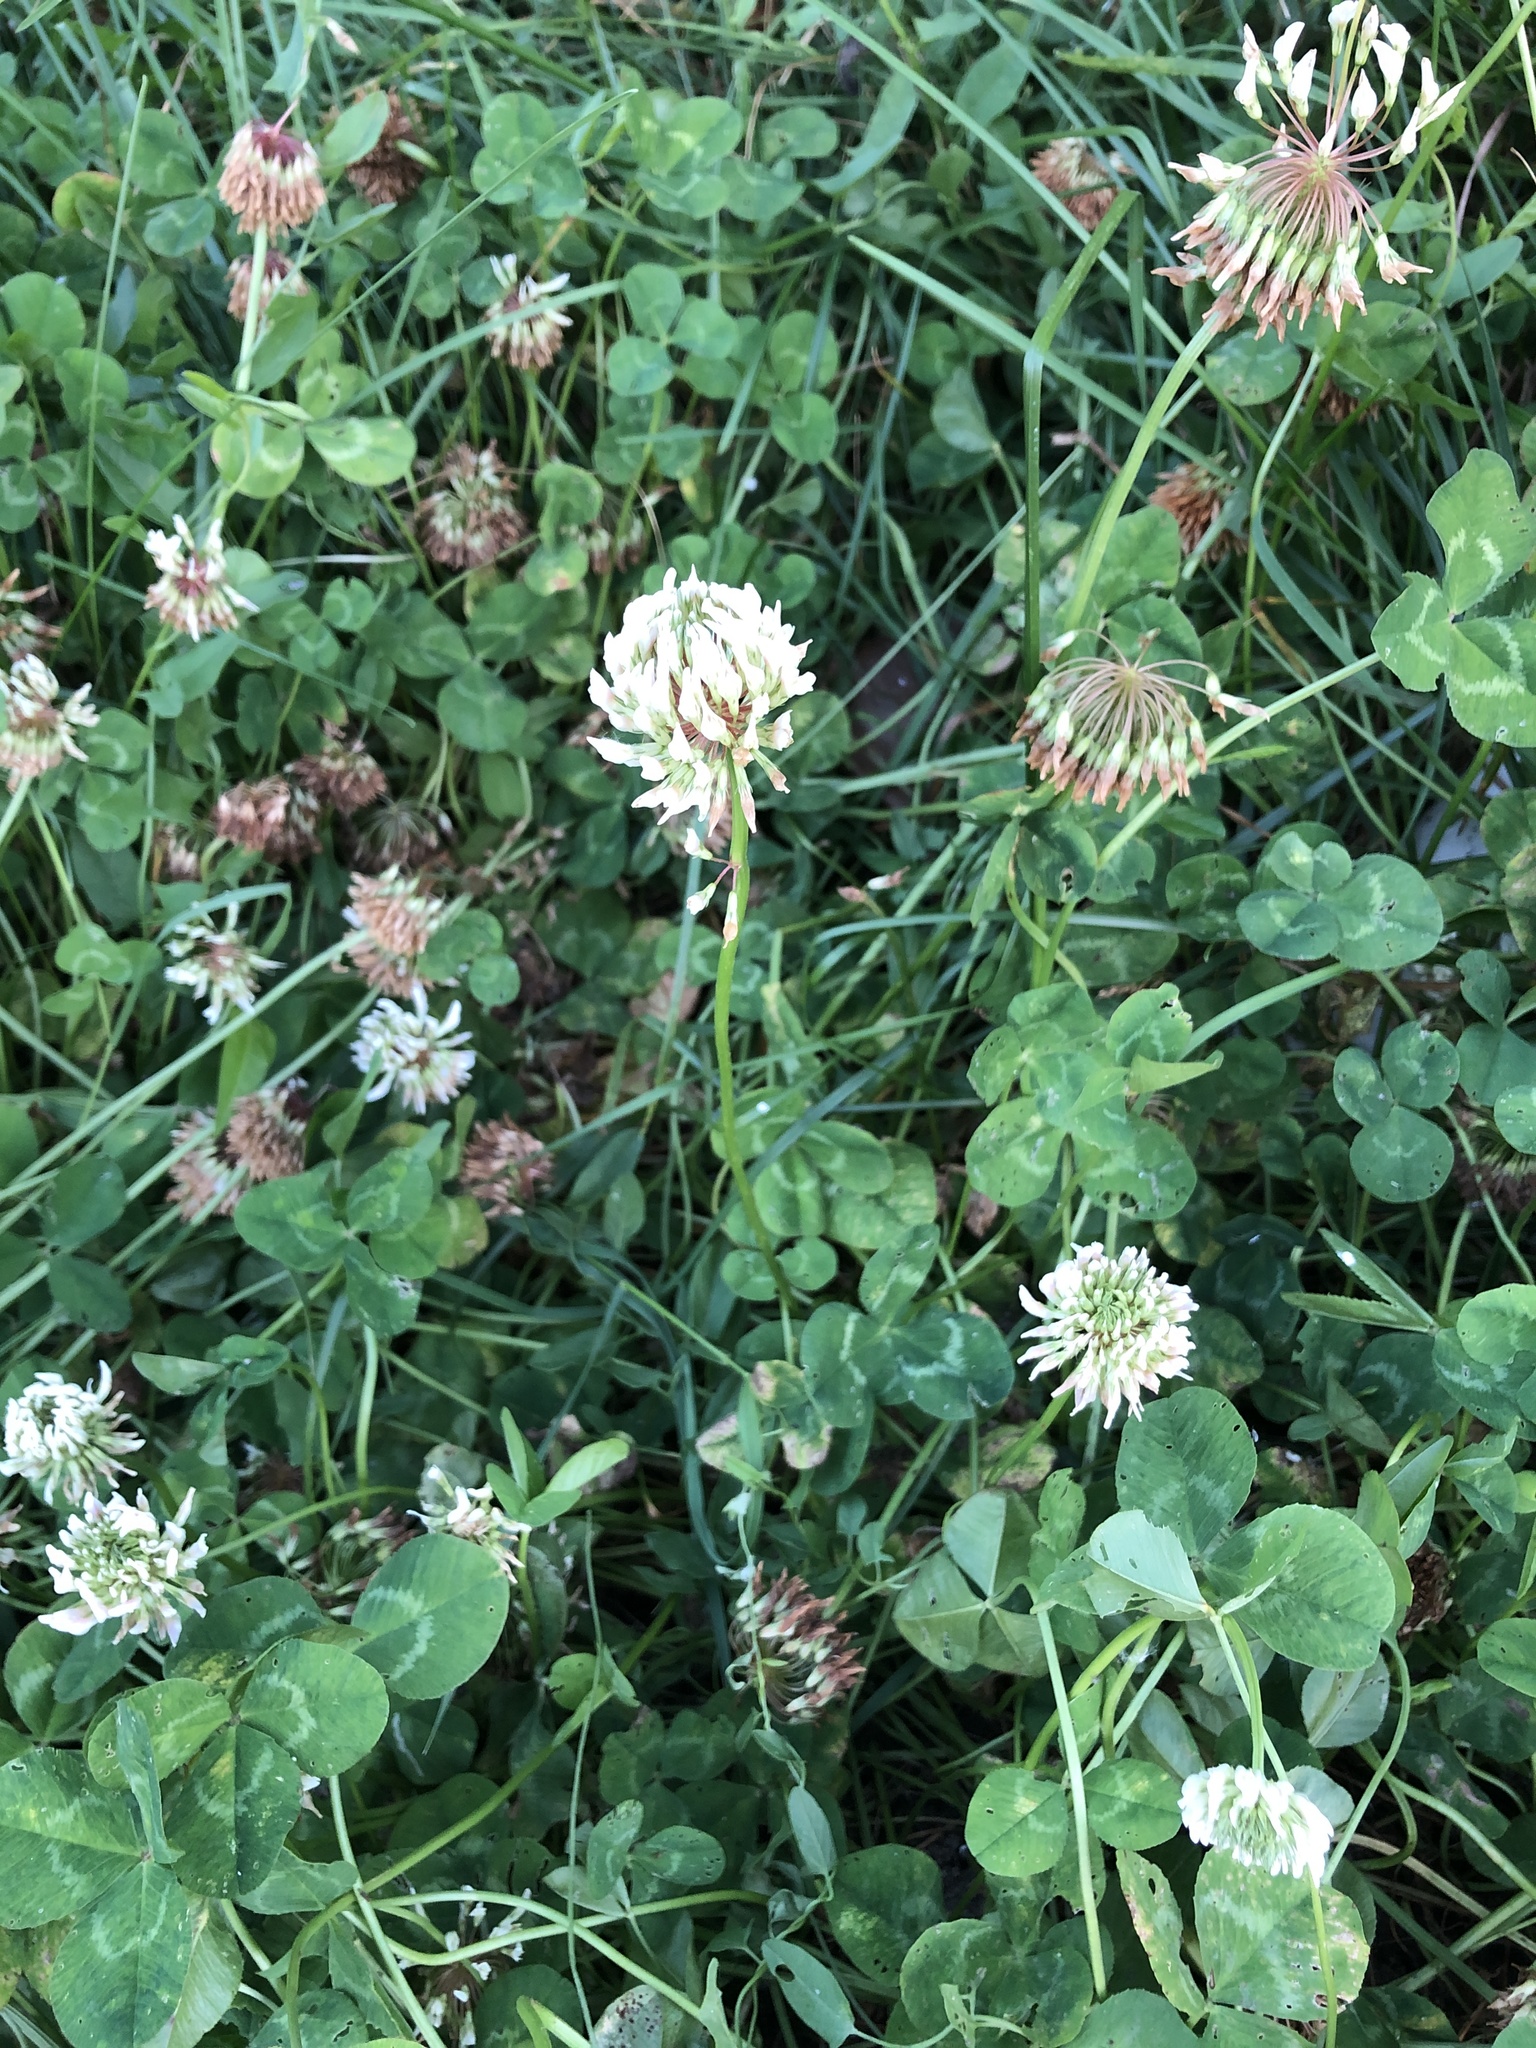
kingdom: Plantae
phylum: Tracheophyta
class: Magnoliopsida
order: Fabales
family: Fabaceae
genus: Trifolium
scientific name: Trifolium repens
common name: White clover
